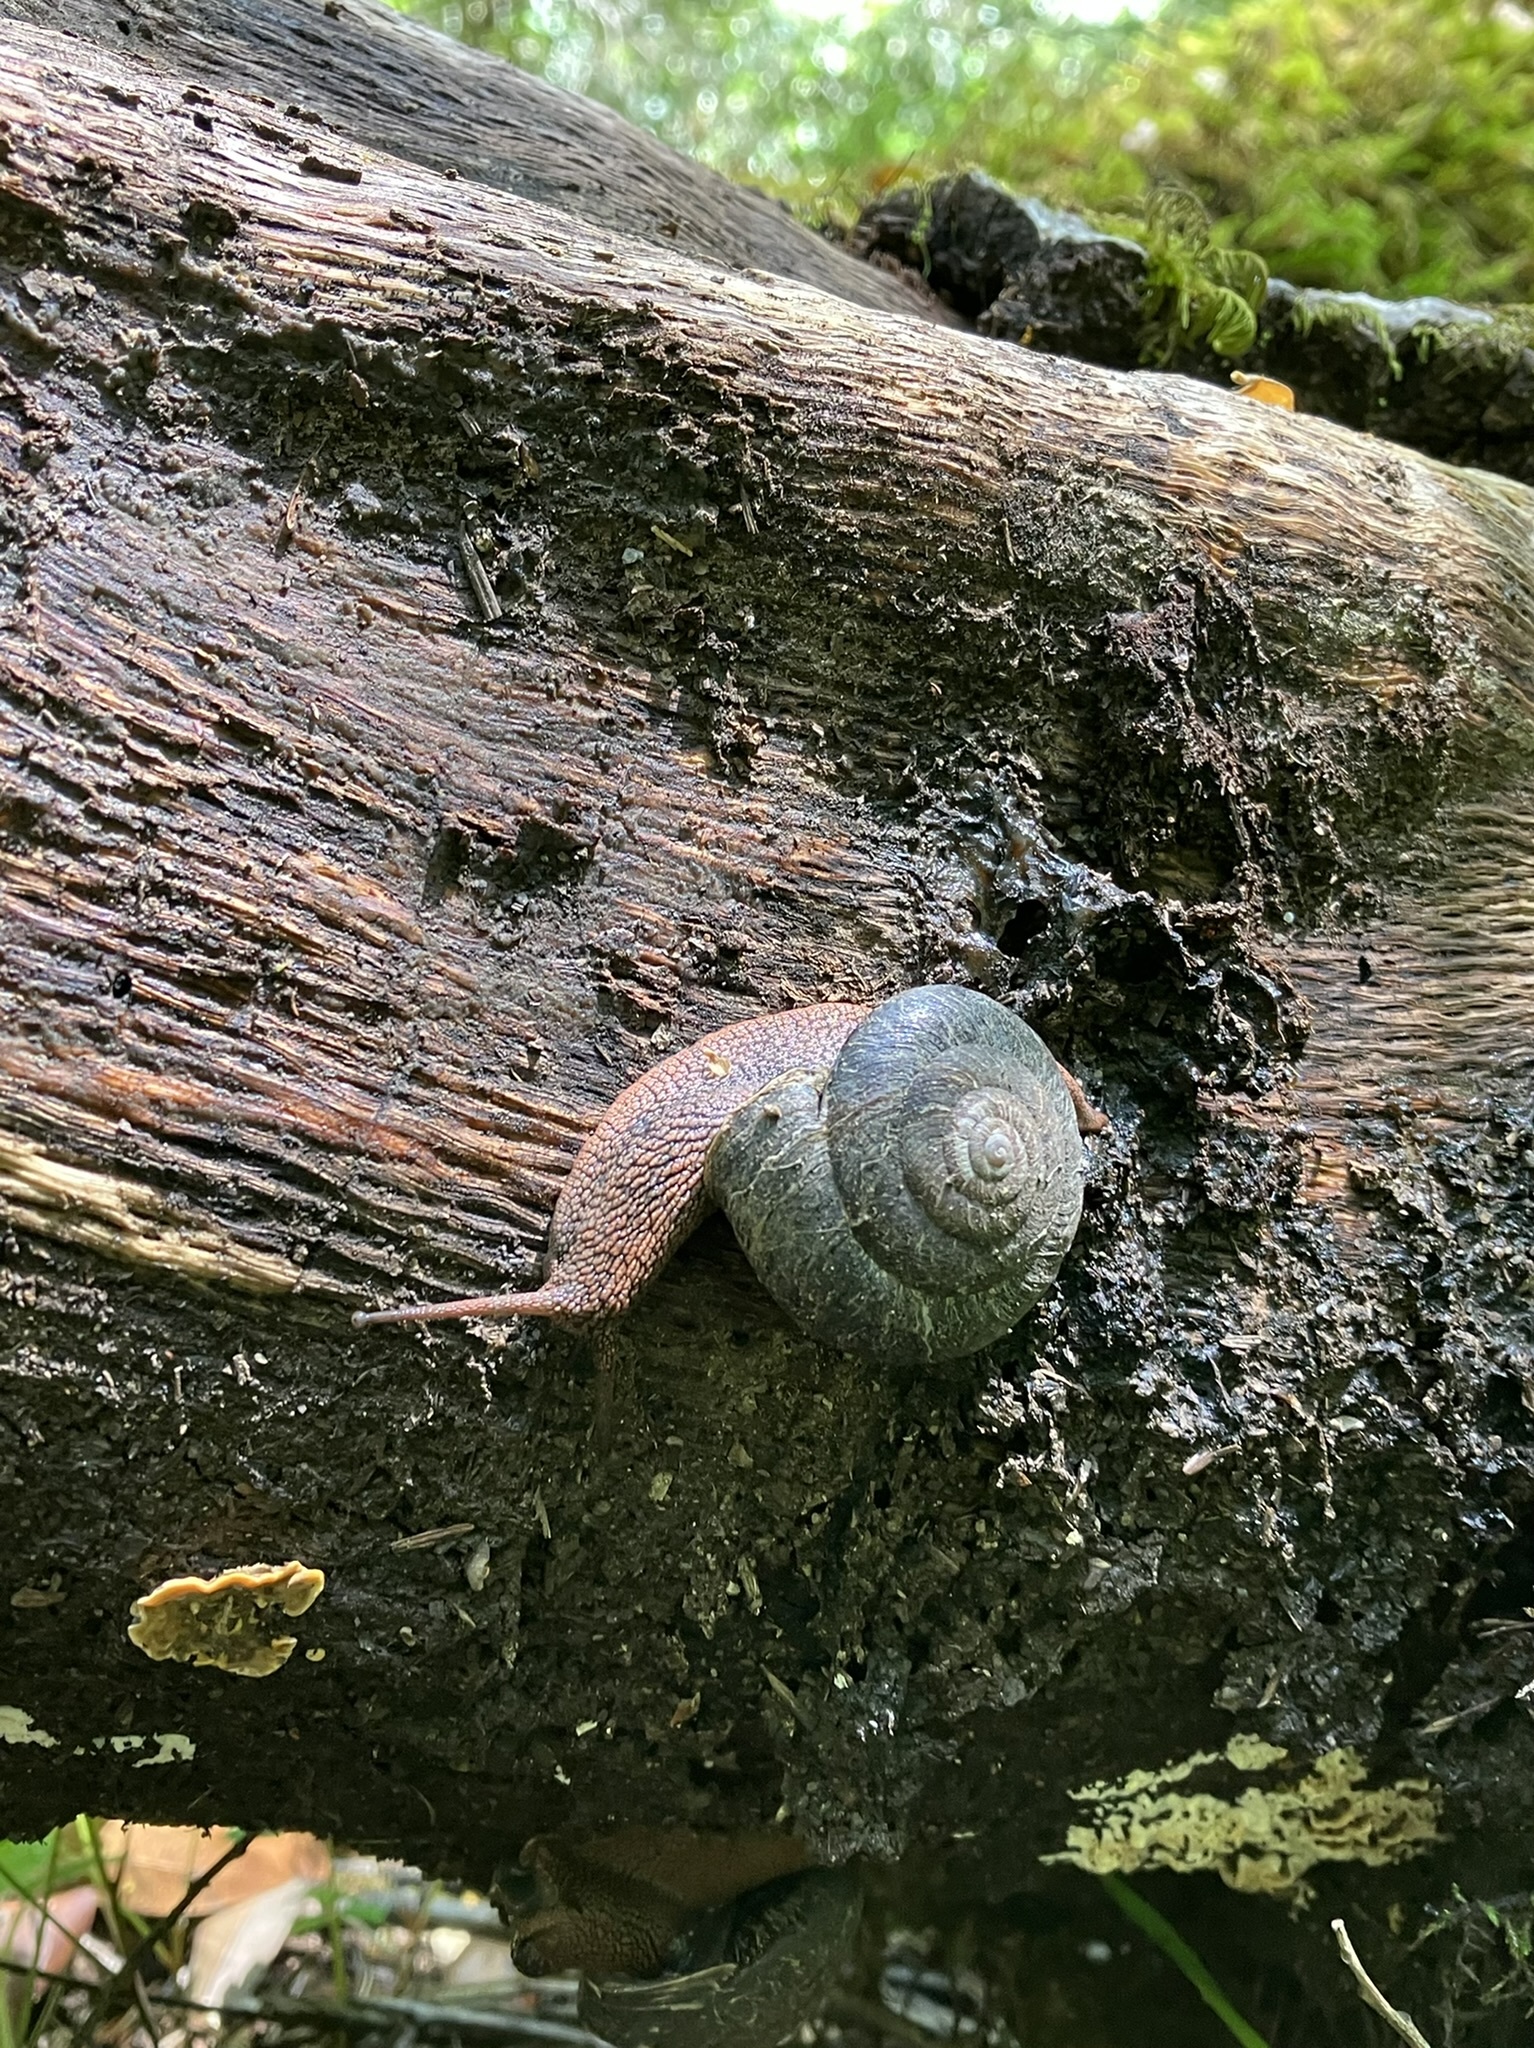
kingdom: Animalia
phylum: Mollusca
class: Gastropoda
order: Stylommatophora
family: Xanthonychidae
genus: Monadenia
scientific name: Monadenia infumata
